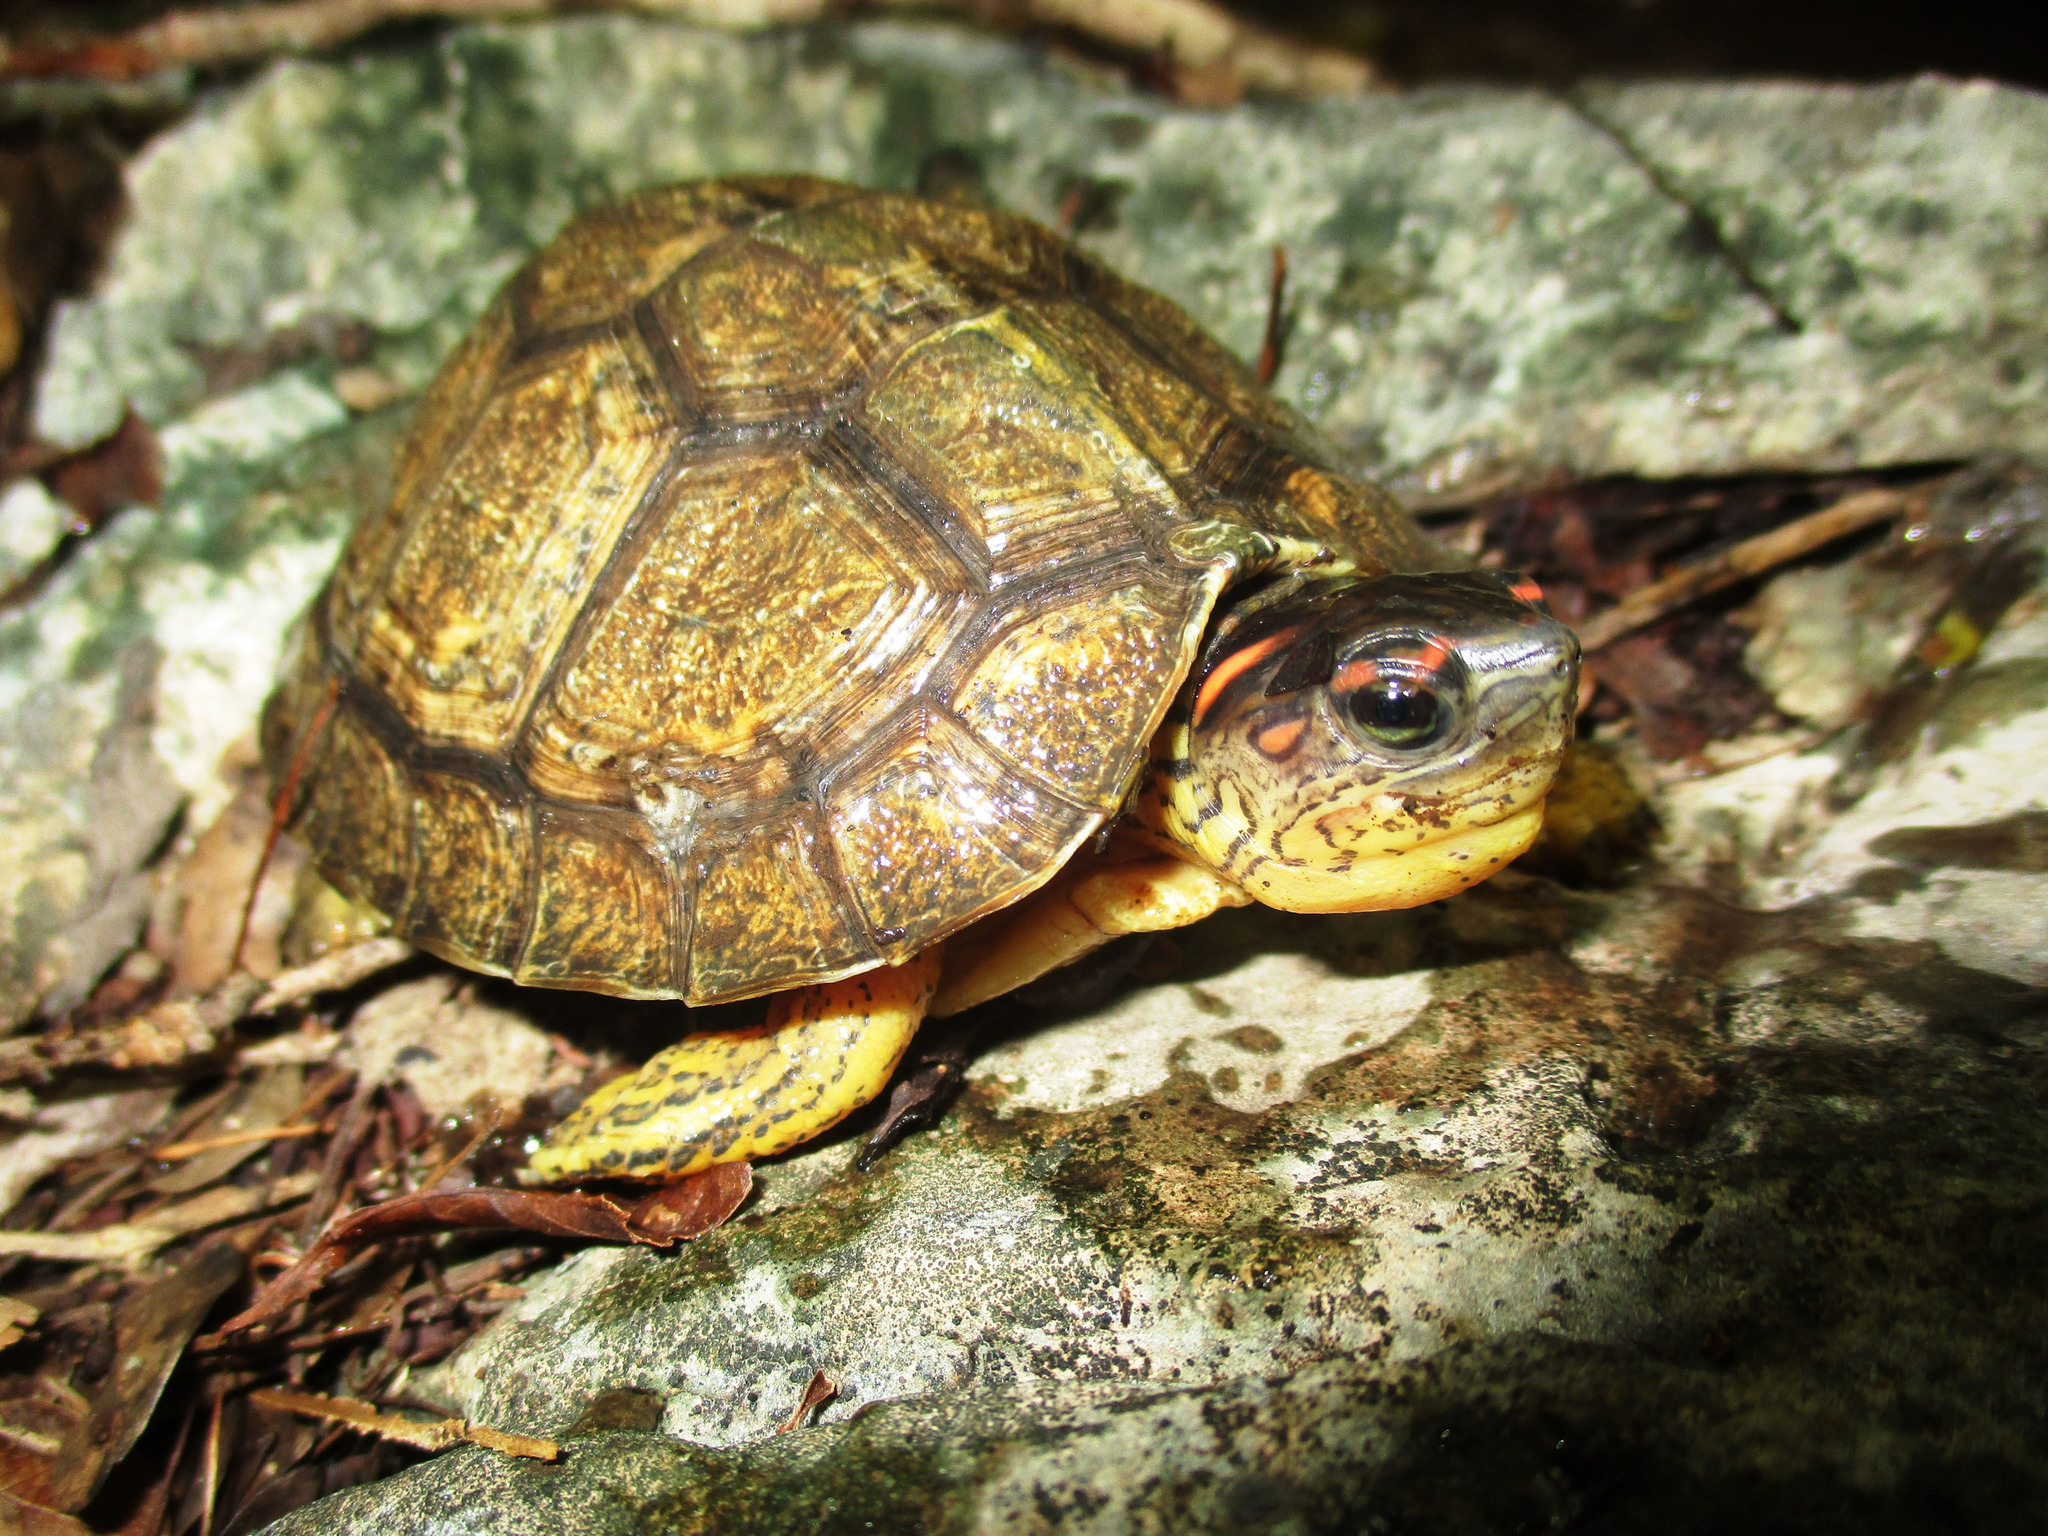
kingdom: Animalia
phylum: Chordata
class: Testudines
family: Geoemydidae
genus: Rhinoclemmys
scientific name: Rhinoclemmys areolata
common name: Furrowed wood turtle
